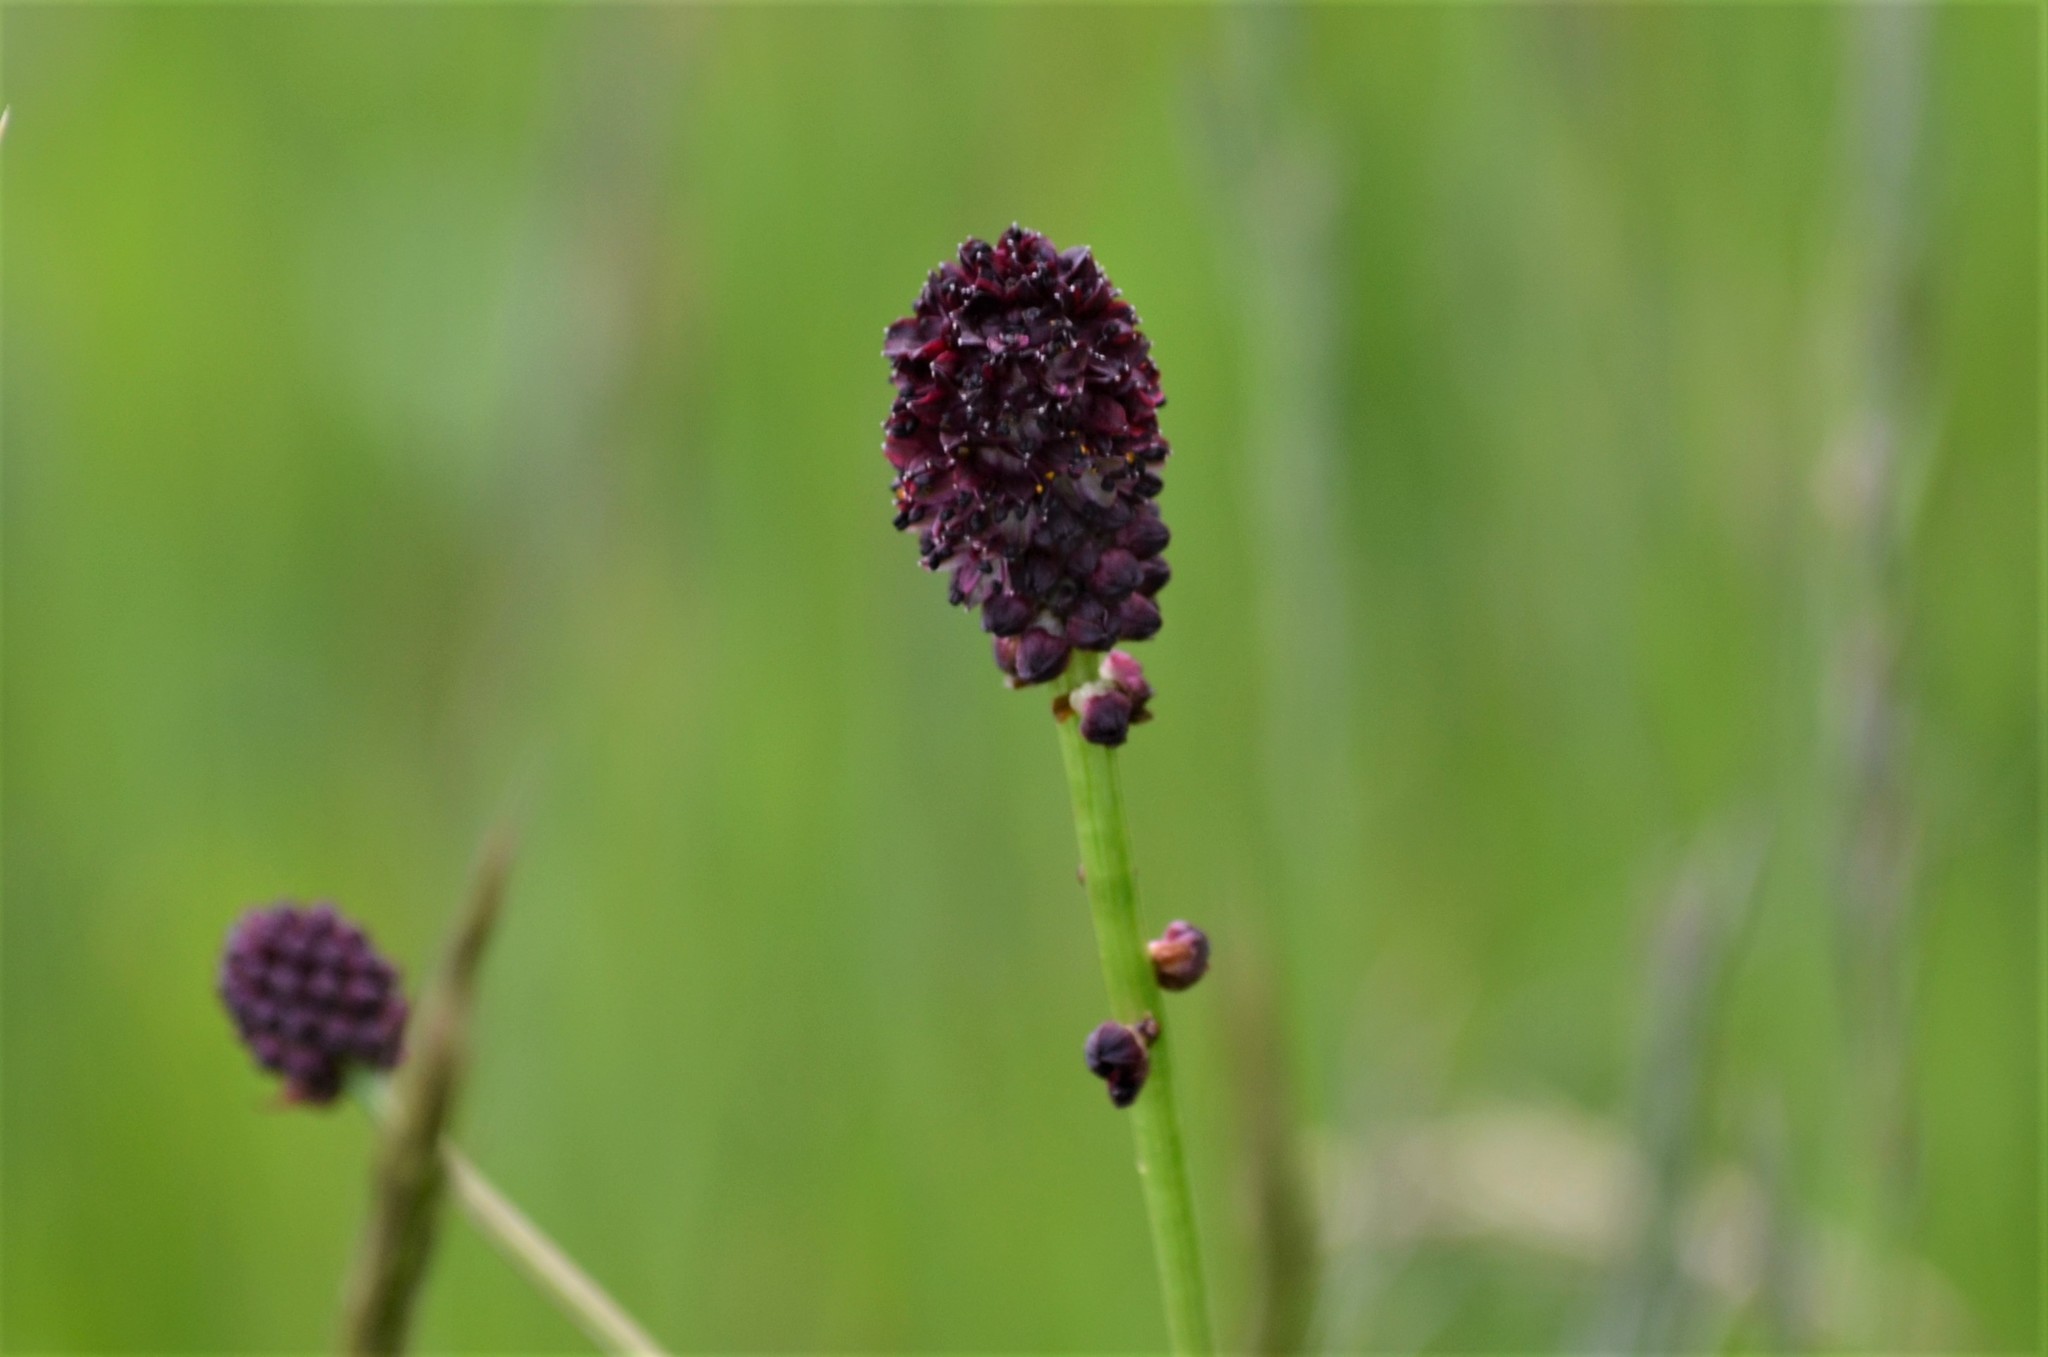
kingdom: Plantae
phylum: Tracheophyta
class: Magnoliopsida
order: Rosales
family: Rosaceae
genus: Sanguisorba
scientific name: Sanguisorba officinalis
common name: Great burnet
